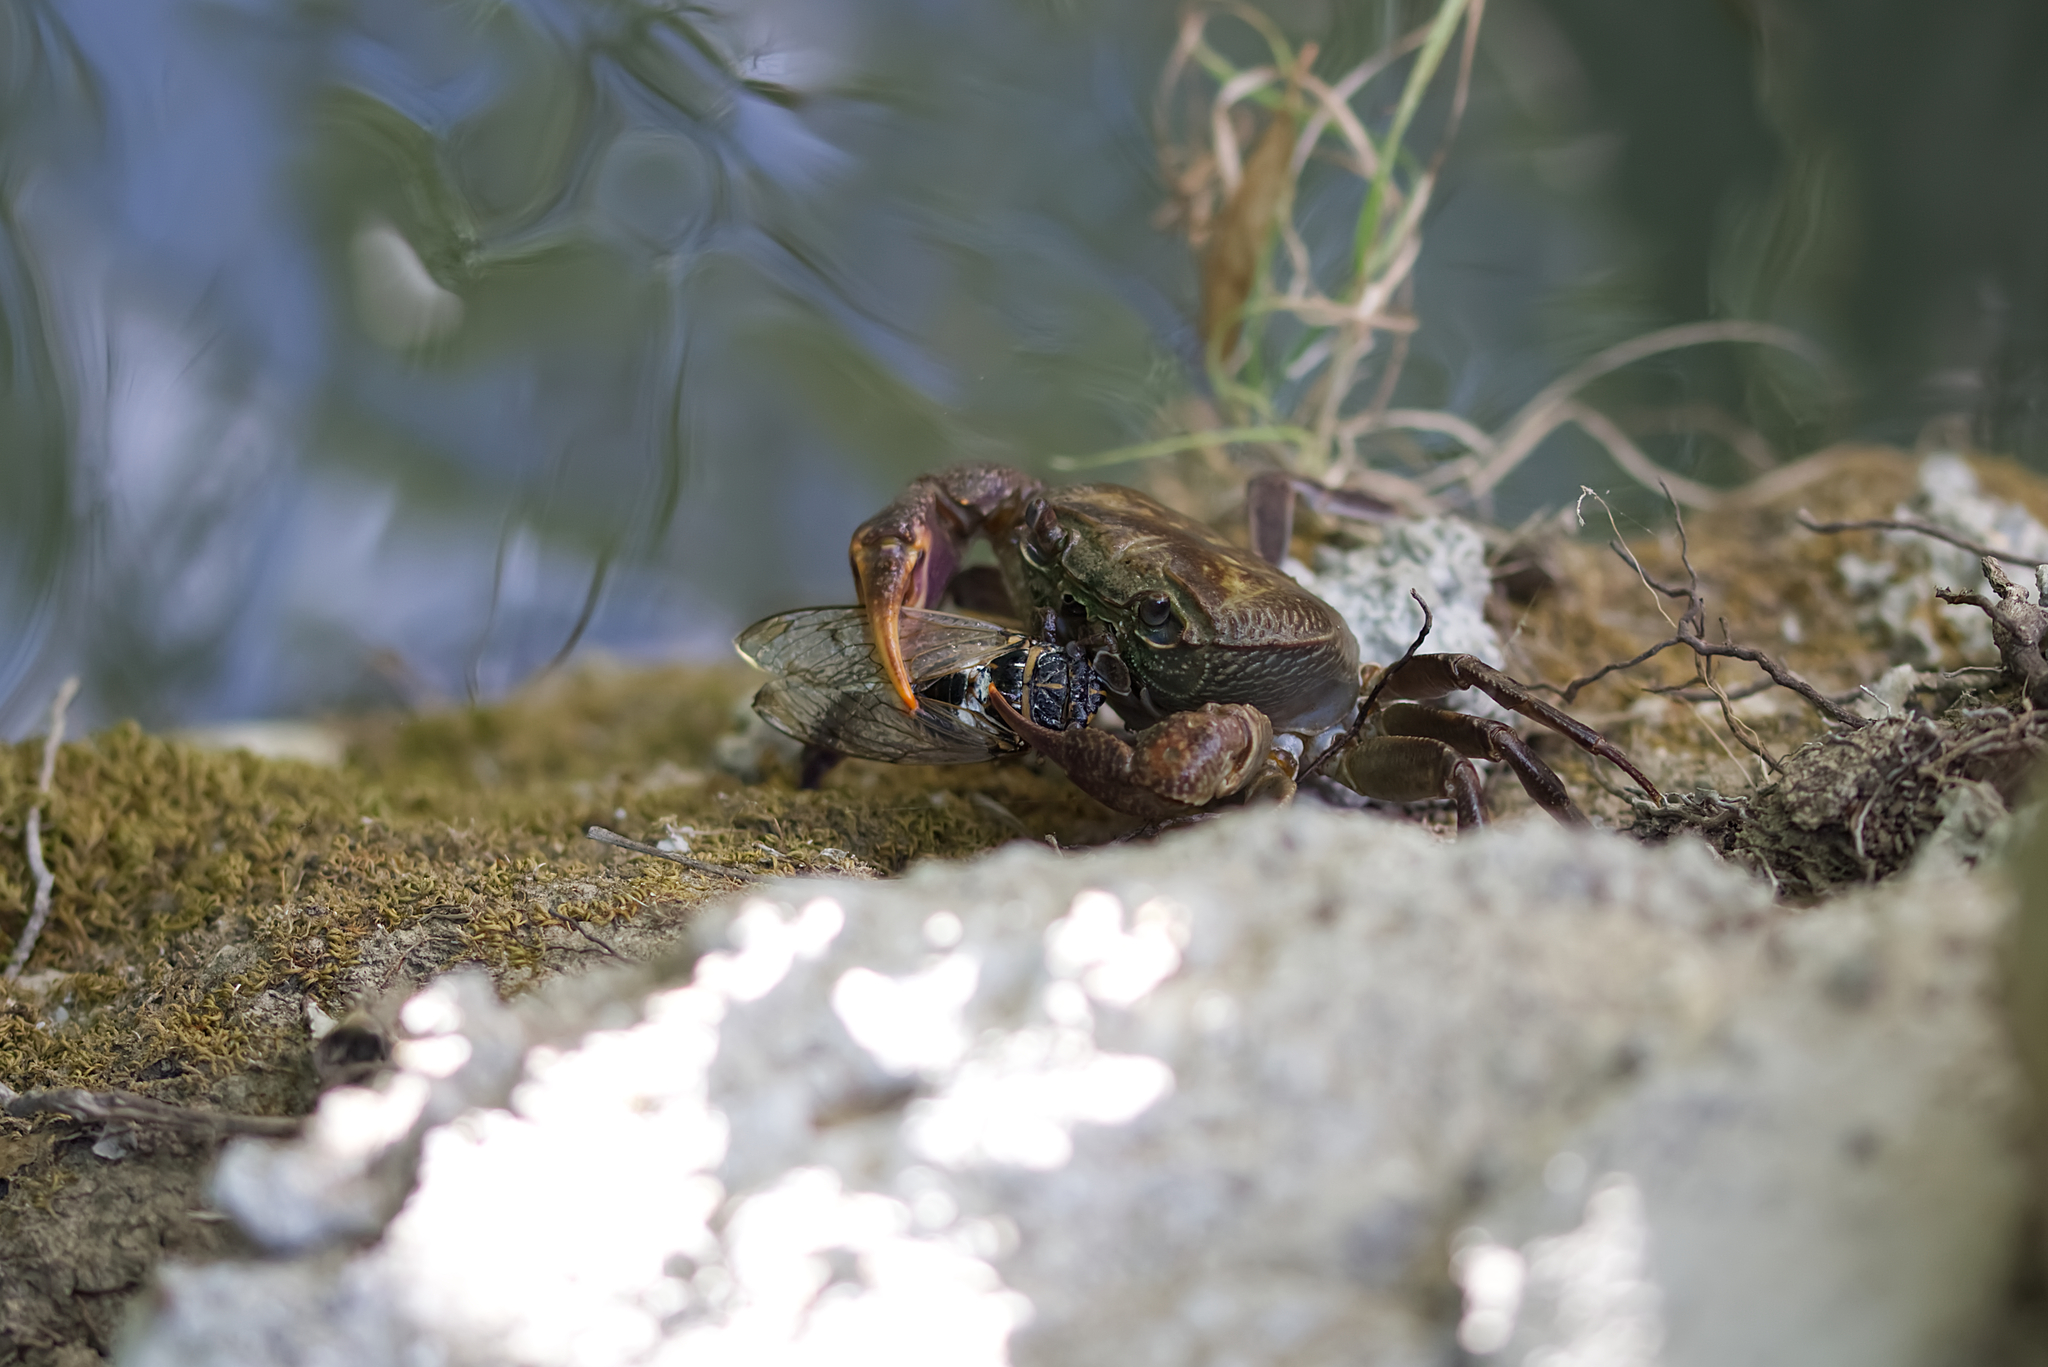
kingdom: Animalia
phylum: Arthropoda
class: Malacostraca
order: Decapoda
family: Potamidae
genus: Potamon
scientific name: Potamon rhodium
